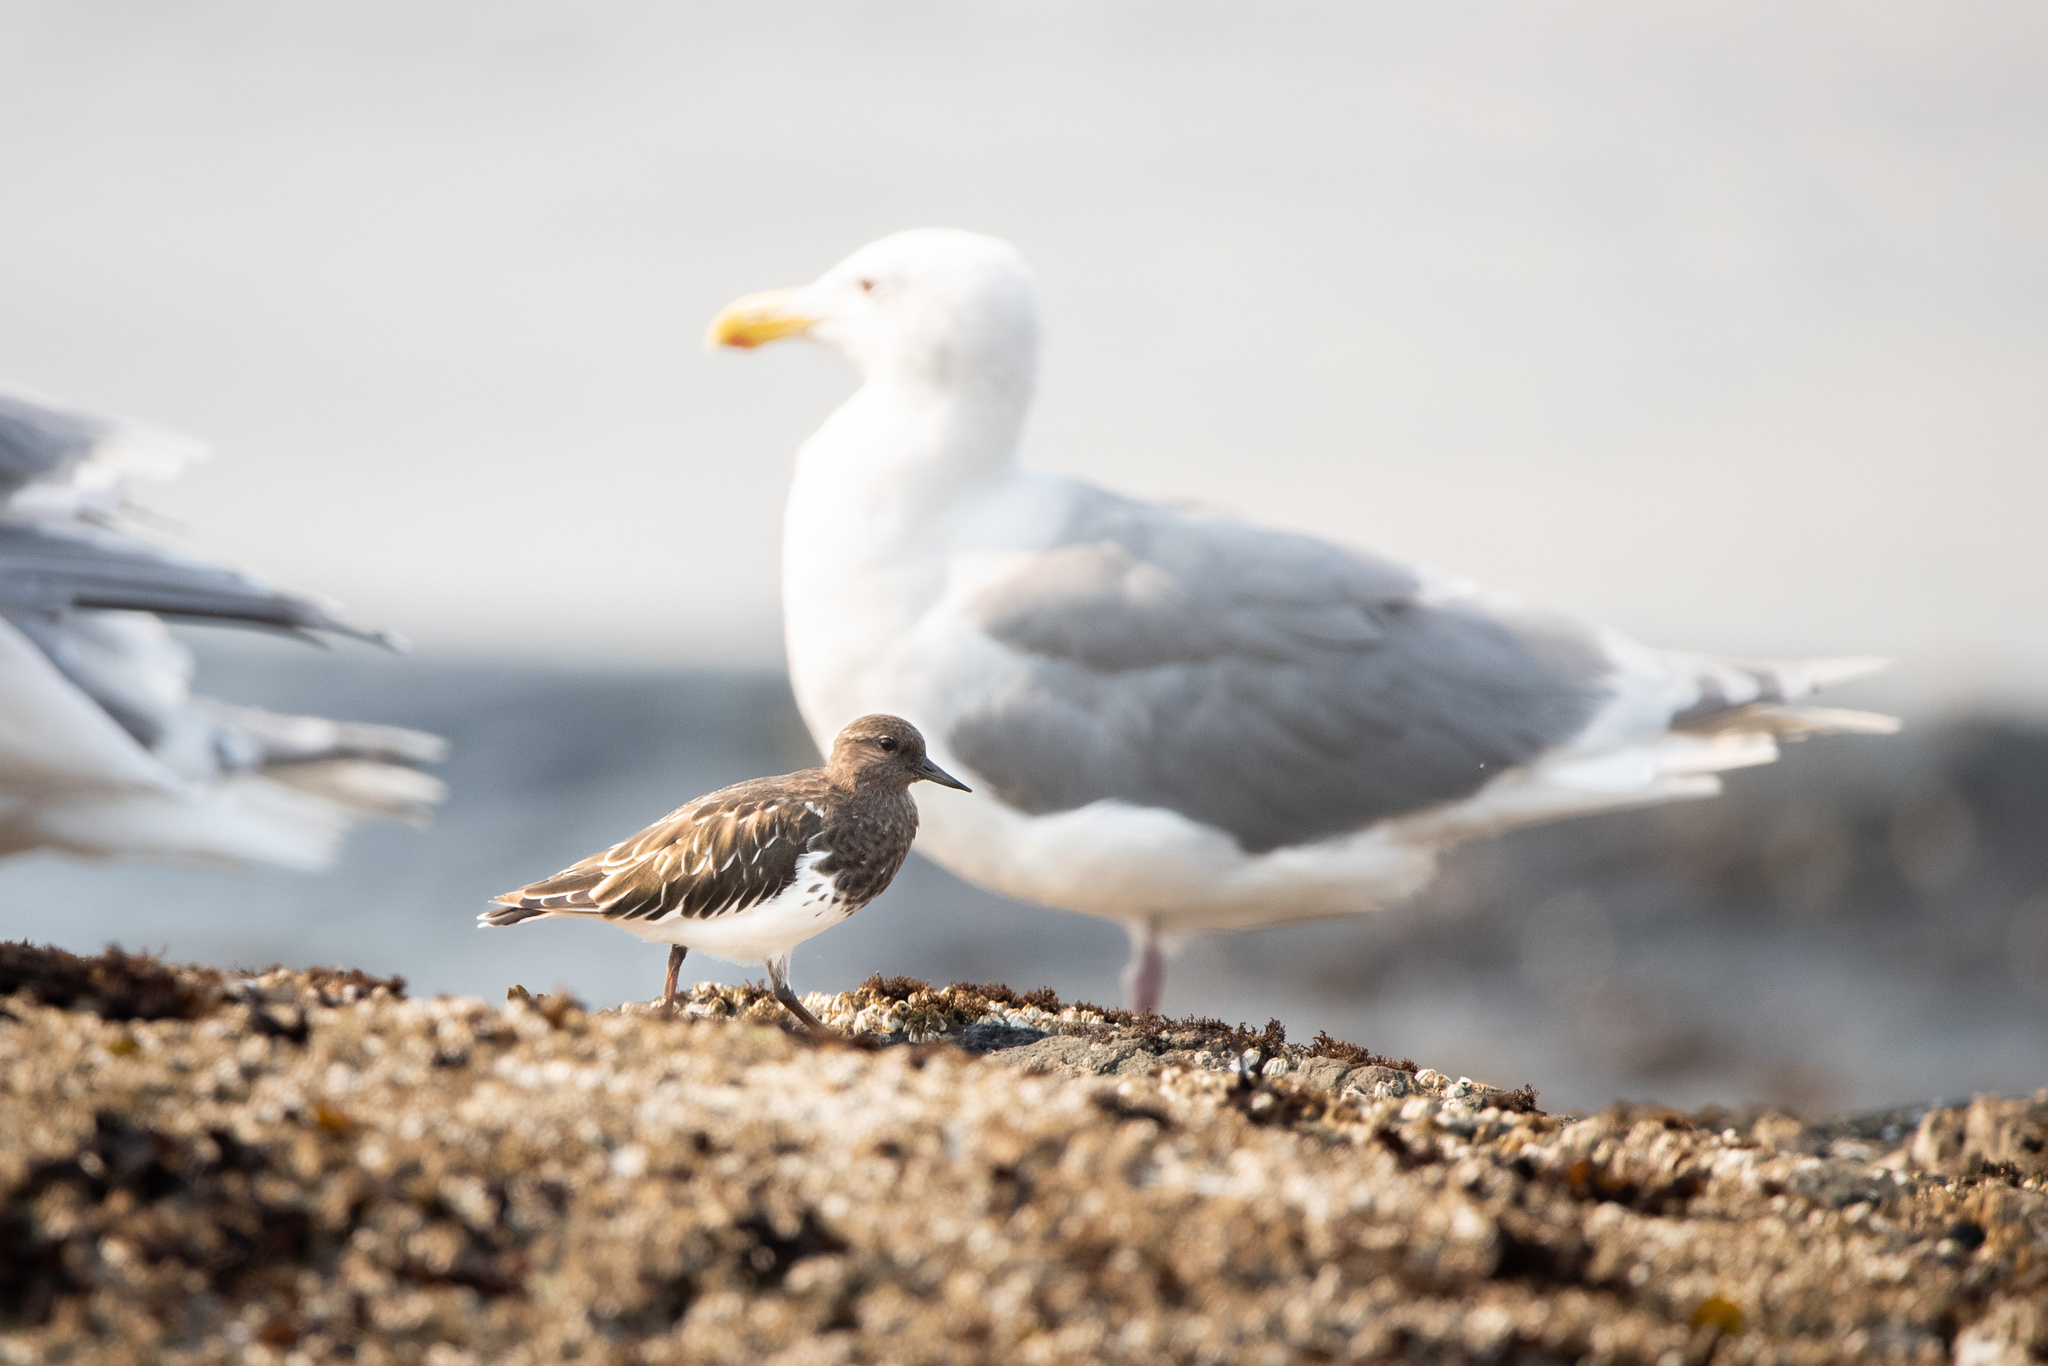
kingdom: Animalia
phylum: Chordata
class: Aves
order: Charadriiformes
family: Scolopacidae
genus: Arenaria
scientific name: Arenaria melanocephala
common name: Black turnstone
